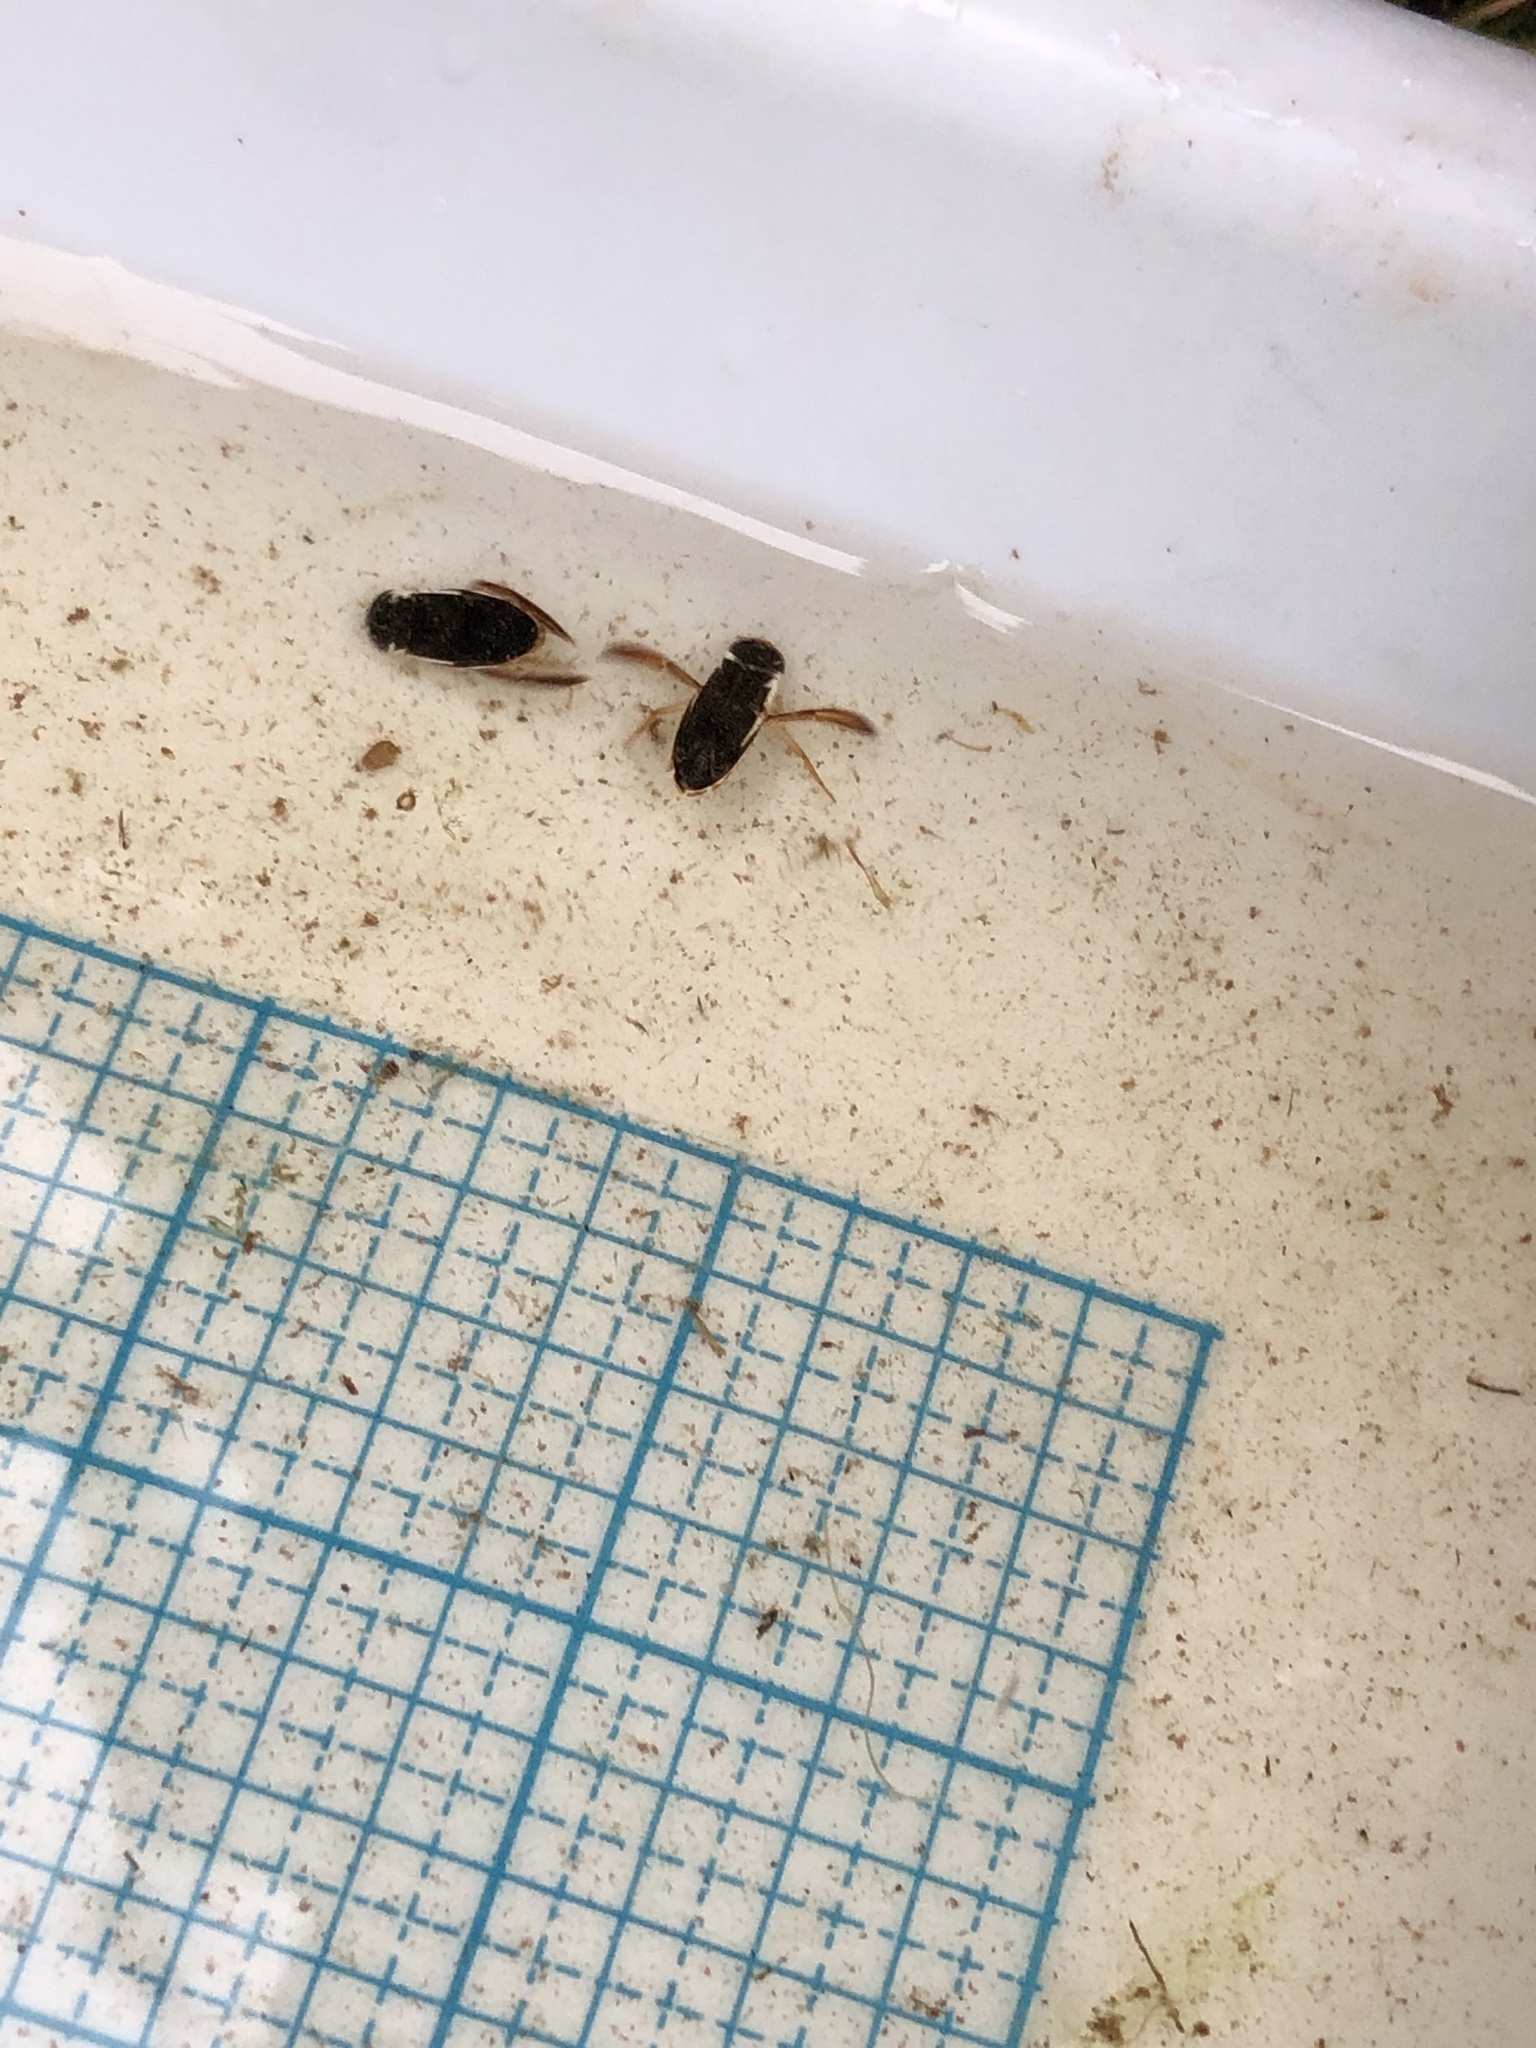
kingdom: Animalia
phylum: Arthropoda
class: Insecta
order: Hemiptera
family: Corixidae
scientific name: Corixidae
